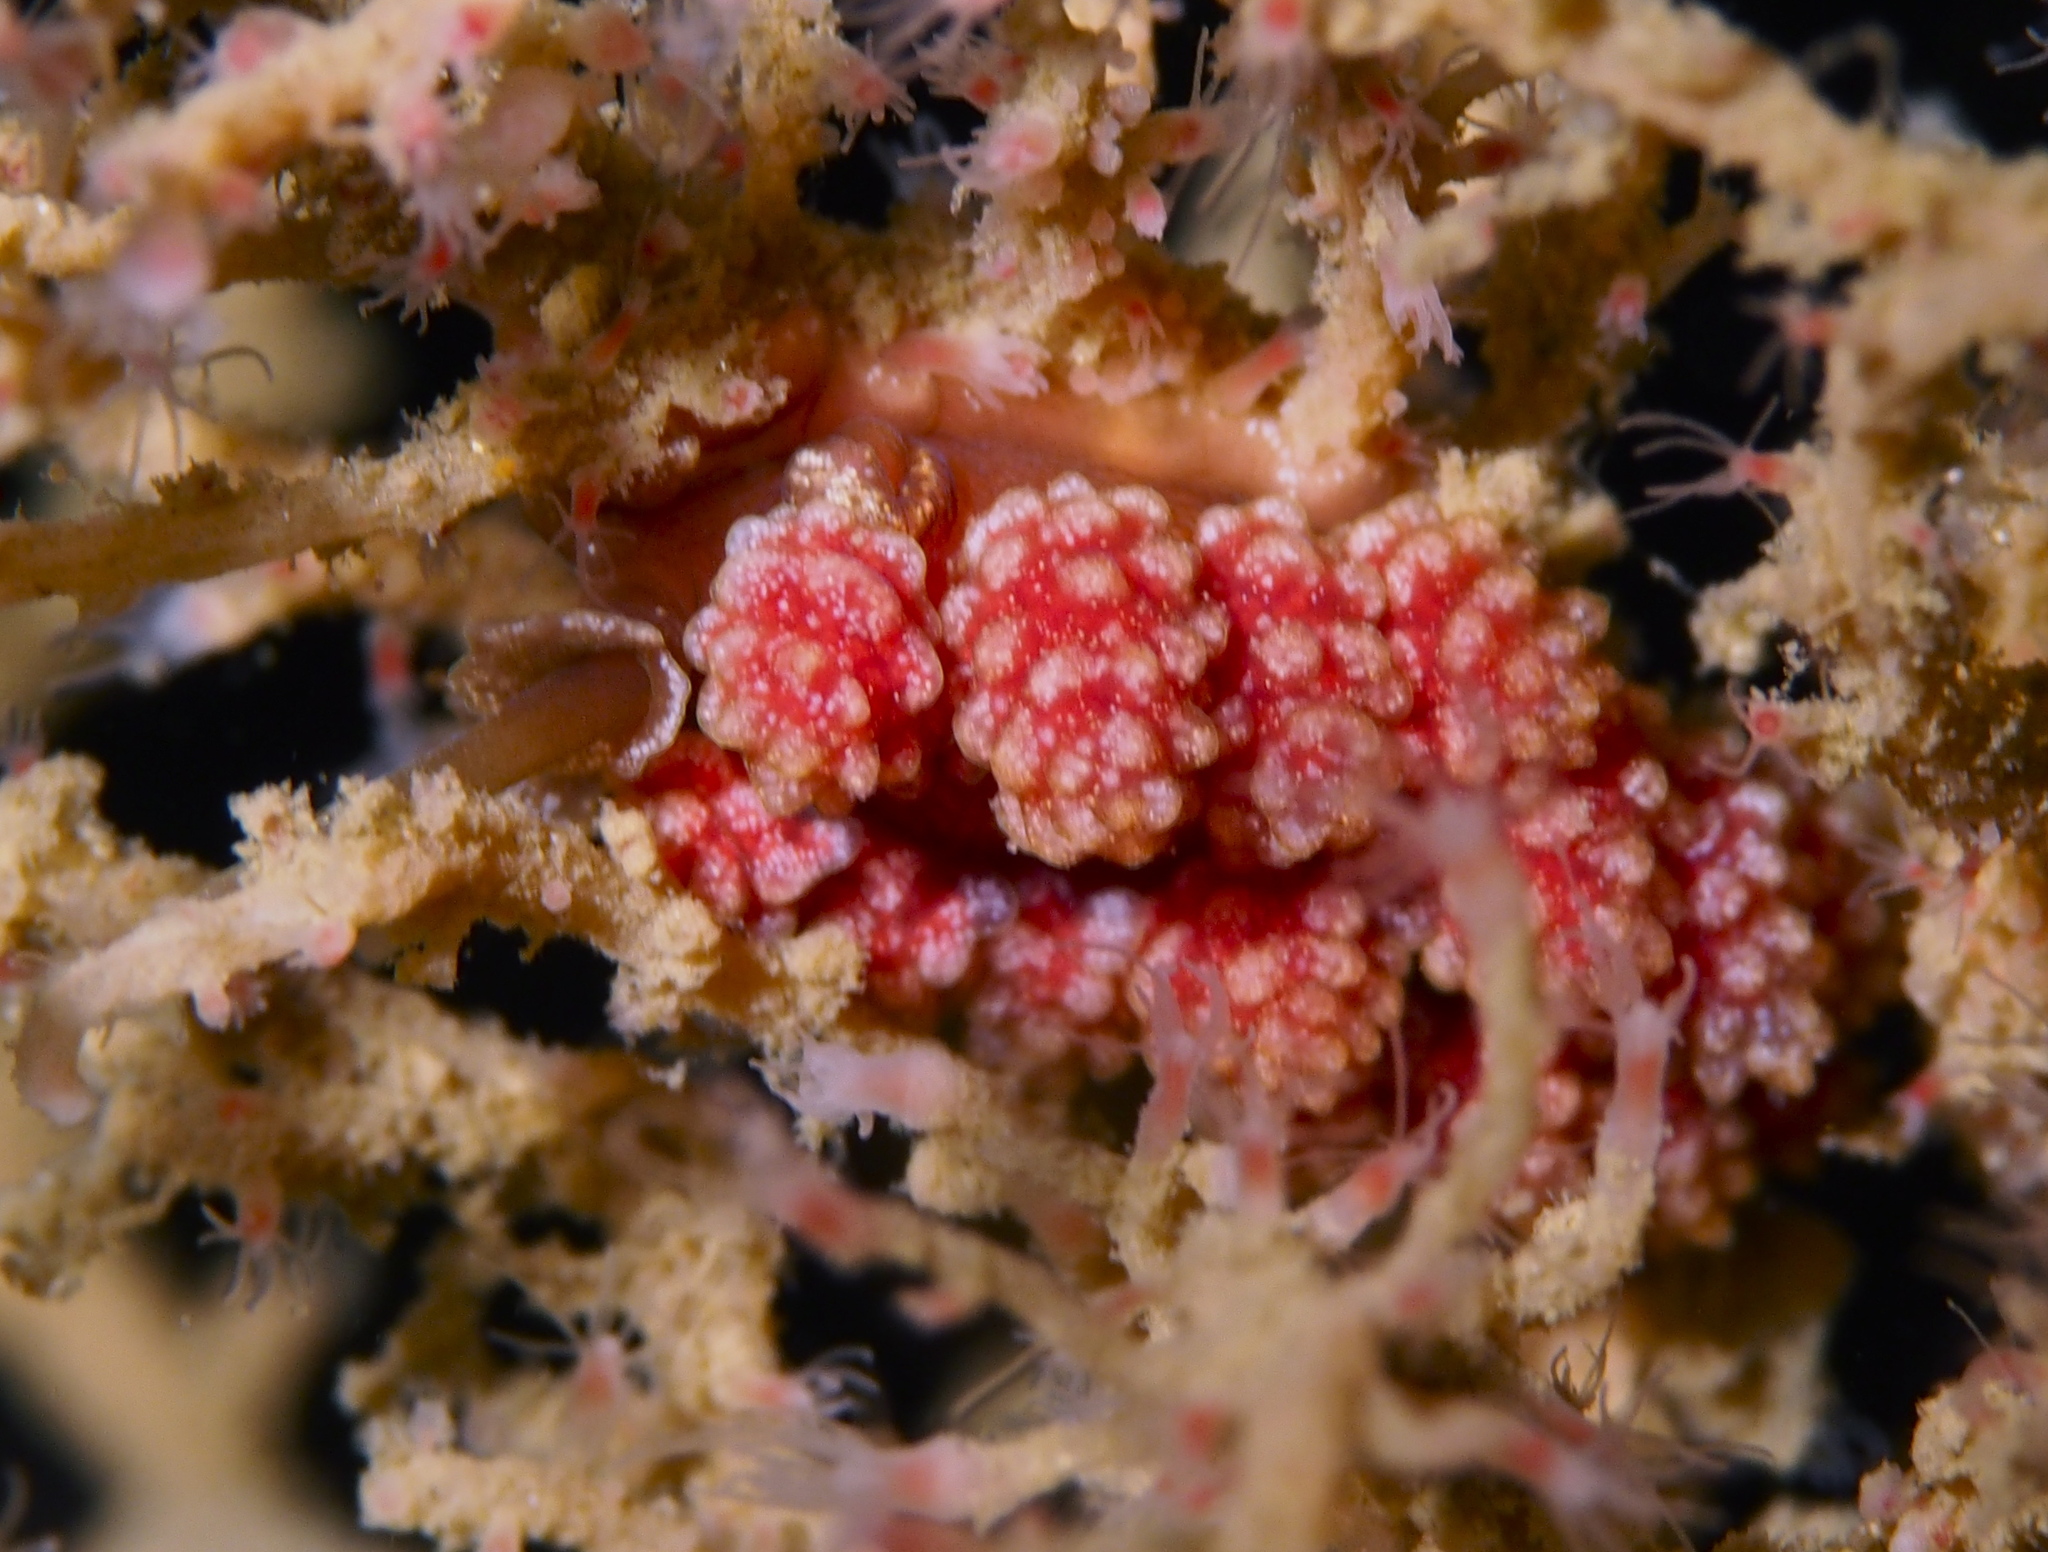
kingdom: Animalia
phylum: Mollusca
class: Gastropoda
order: Nudibranchia
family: Dotidae
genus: Doto
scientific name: Doto fragilis
